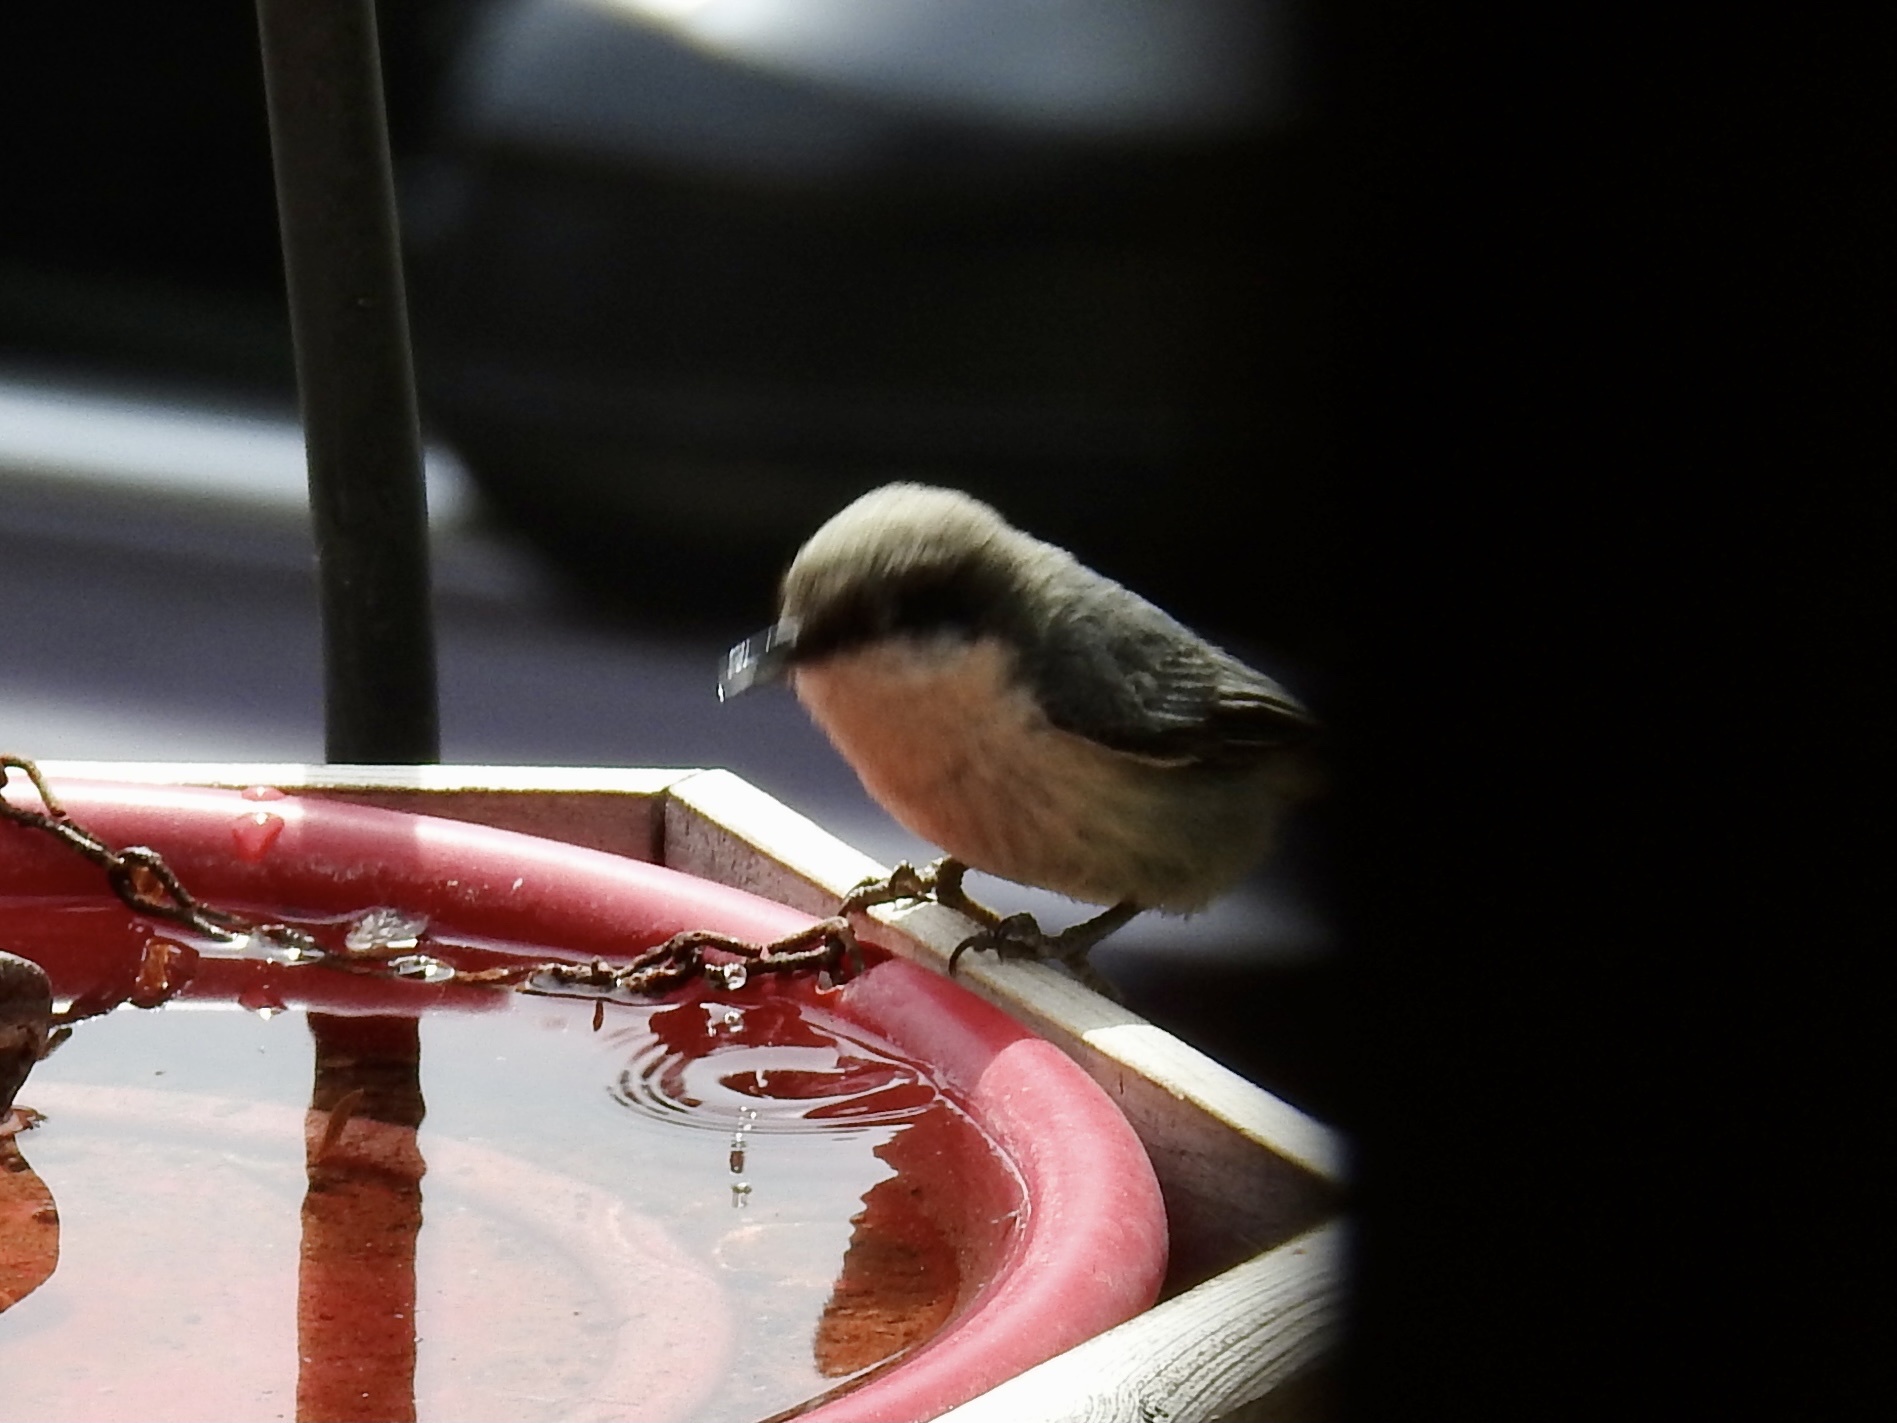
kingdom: Animalia
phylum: Chordata
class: Aves
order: Passeriformes
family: Sittidae
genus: Sitta
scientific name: Sitta pygmaea
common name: Pygmy nuthatch
